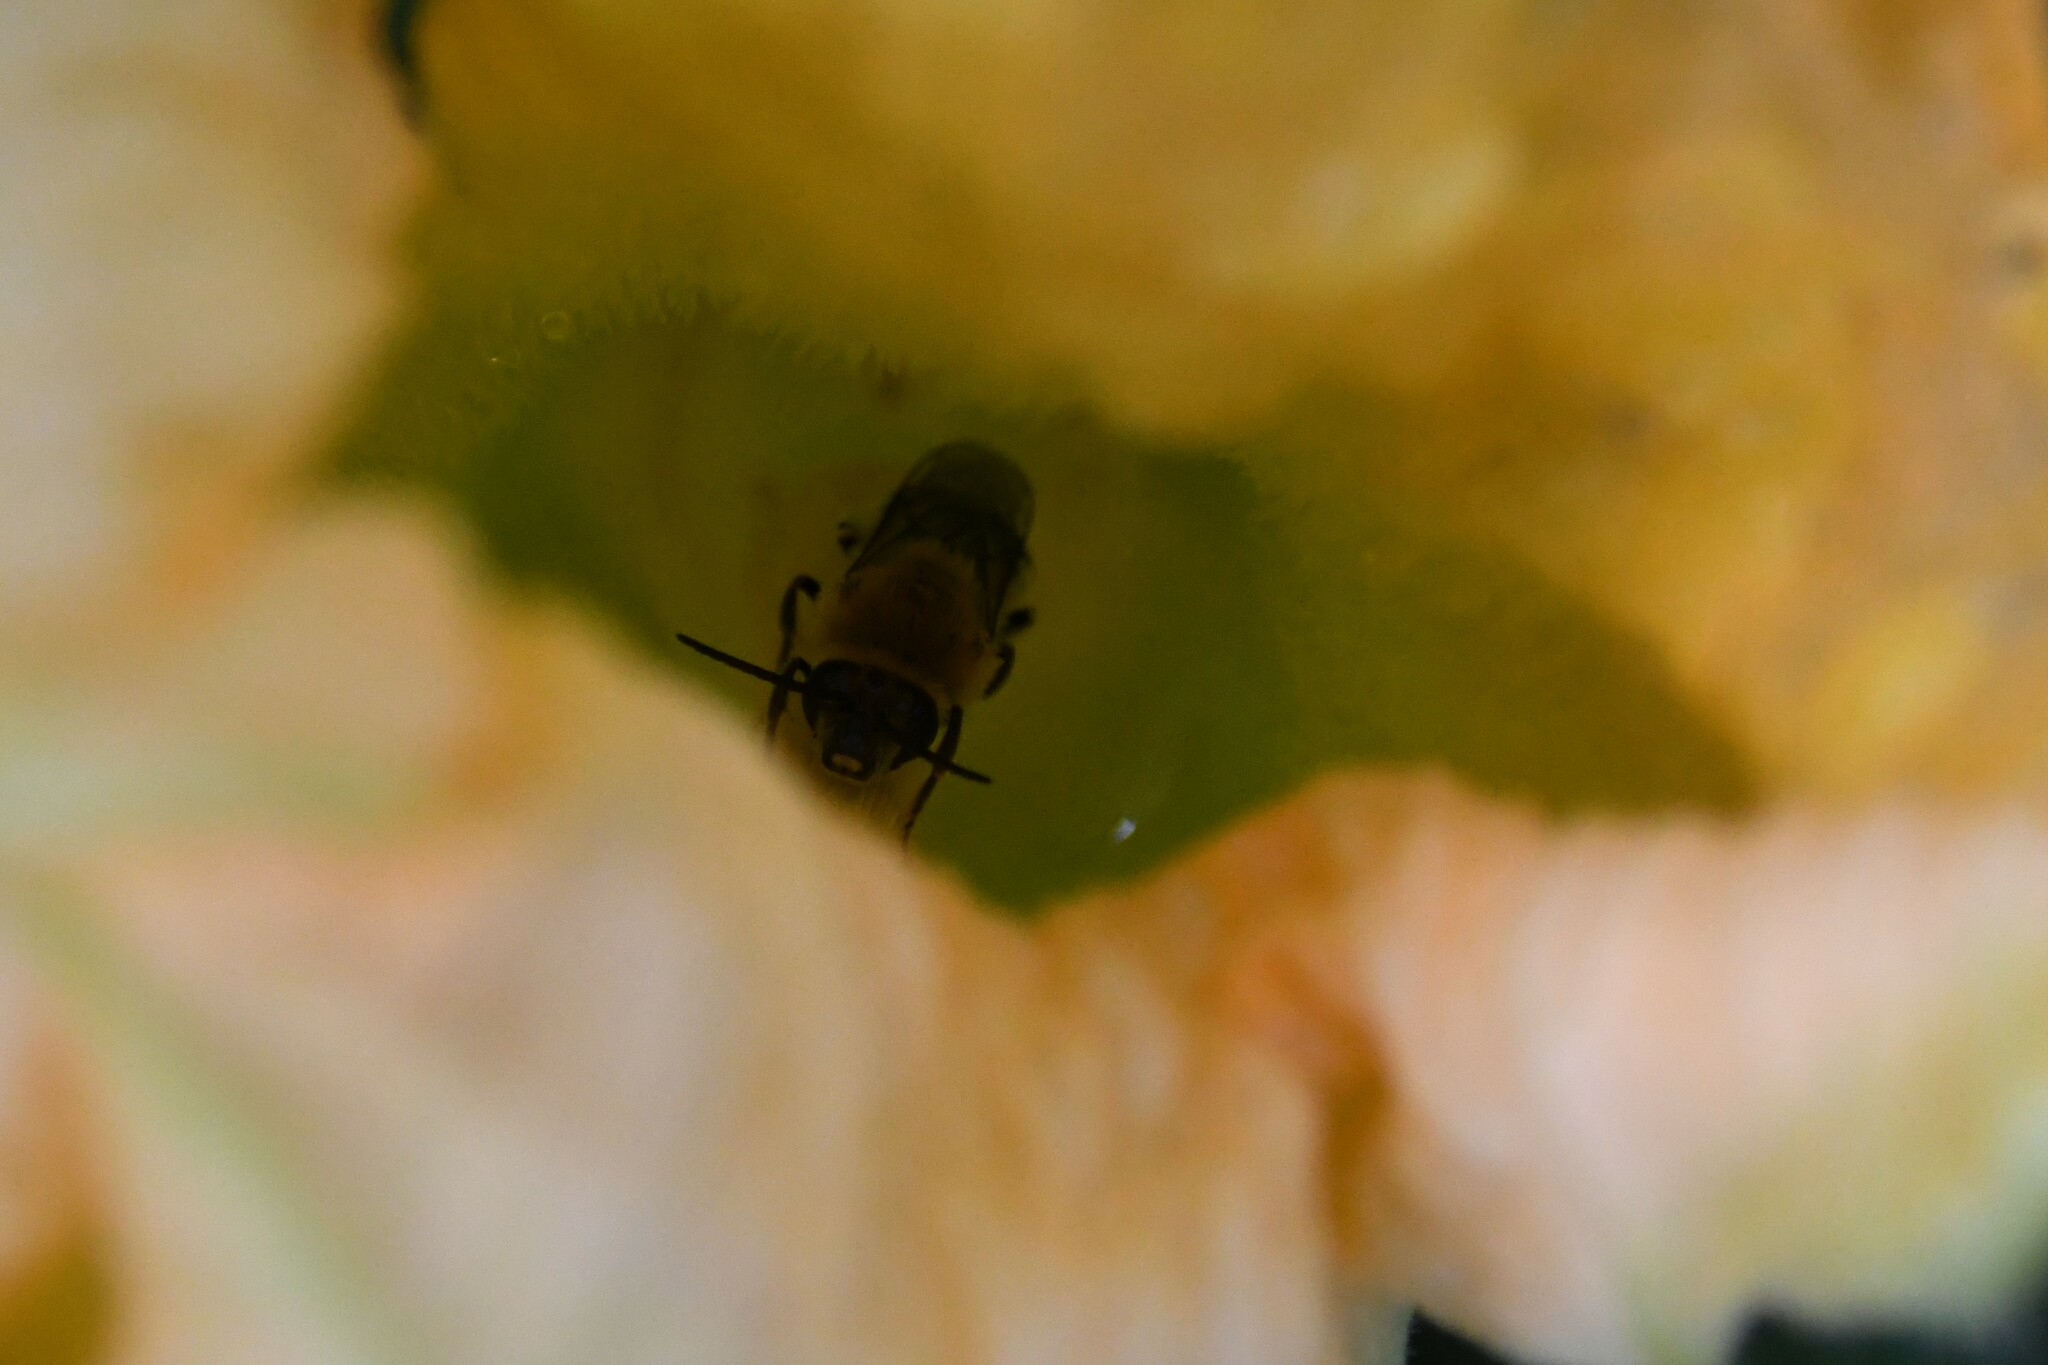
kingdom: Animalia
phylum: Arthropoda
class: Insecta
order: Hymenoptera
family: Apidae
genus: Peponapis
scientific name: Peponapis pruinosa
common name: Pruinose squash bee
